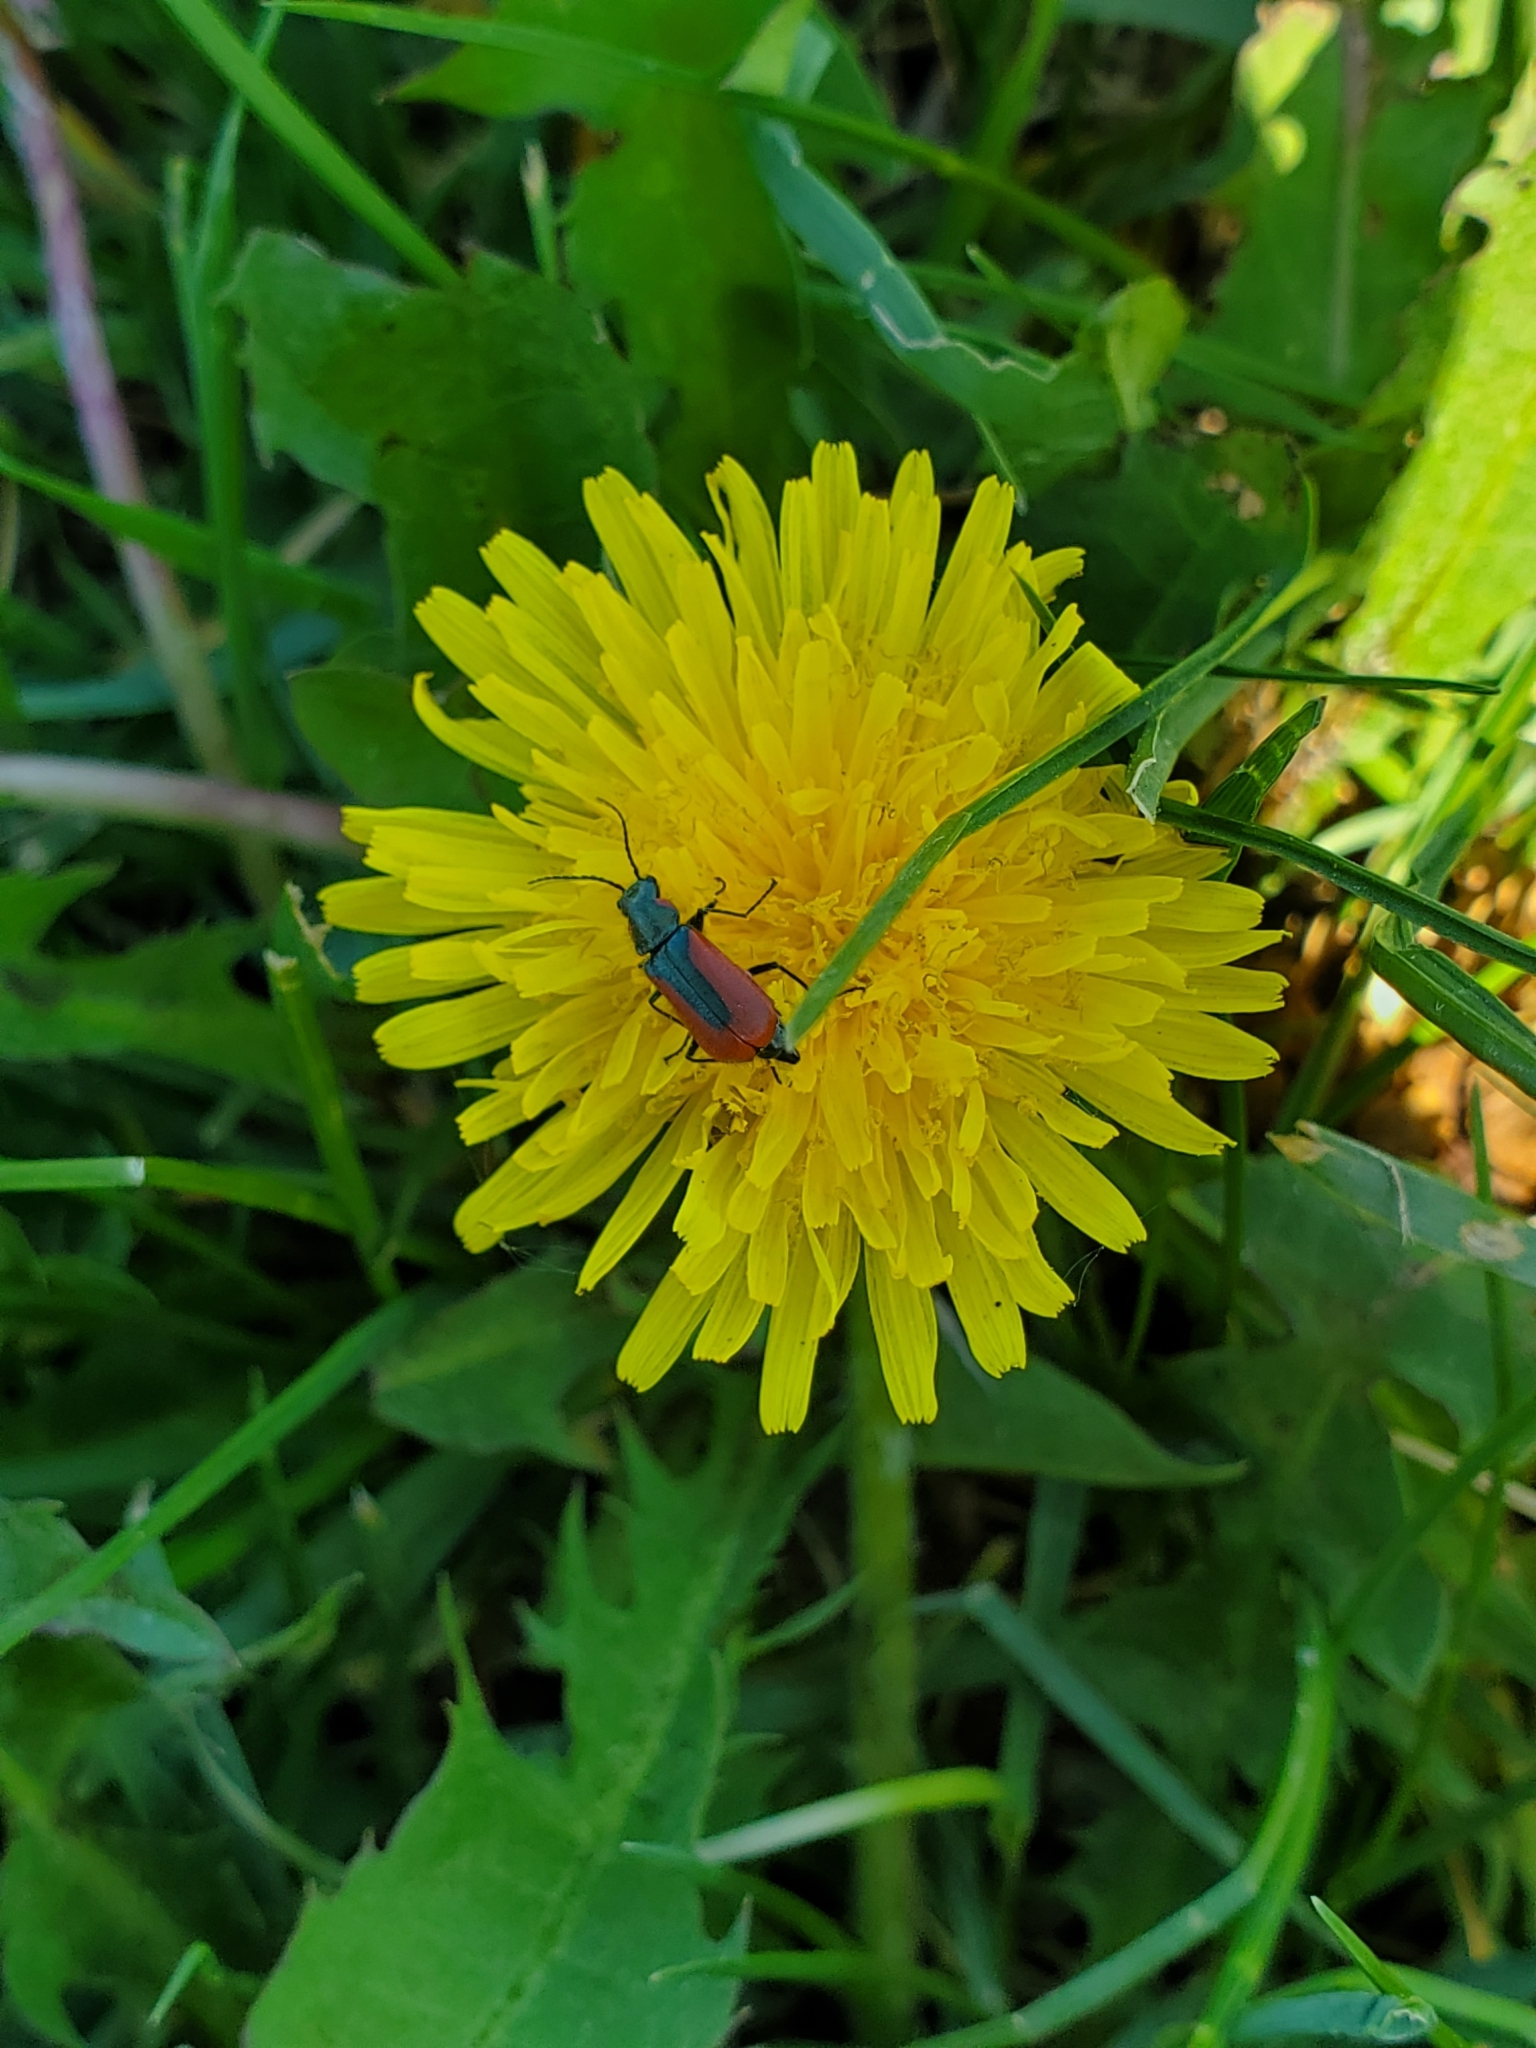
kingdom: Animalia
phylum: Arthropoda
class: Insecta
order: Coleoptera
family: Melyridae
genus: Malachius
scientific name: Malachius aeneus
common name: Scarlet malachite beetle
